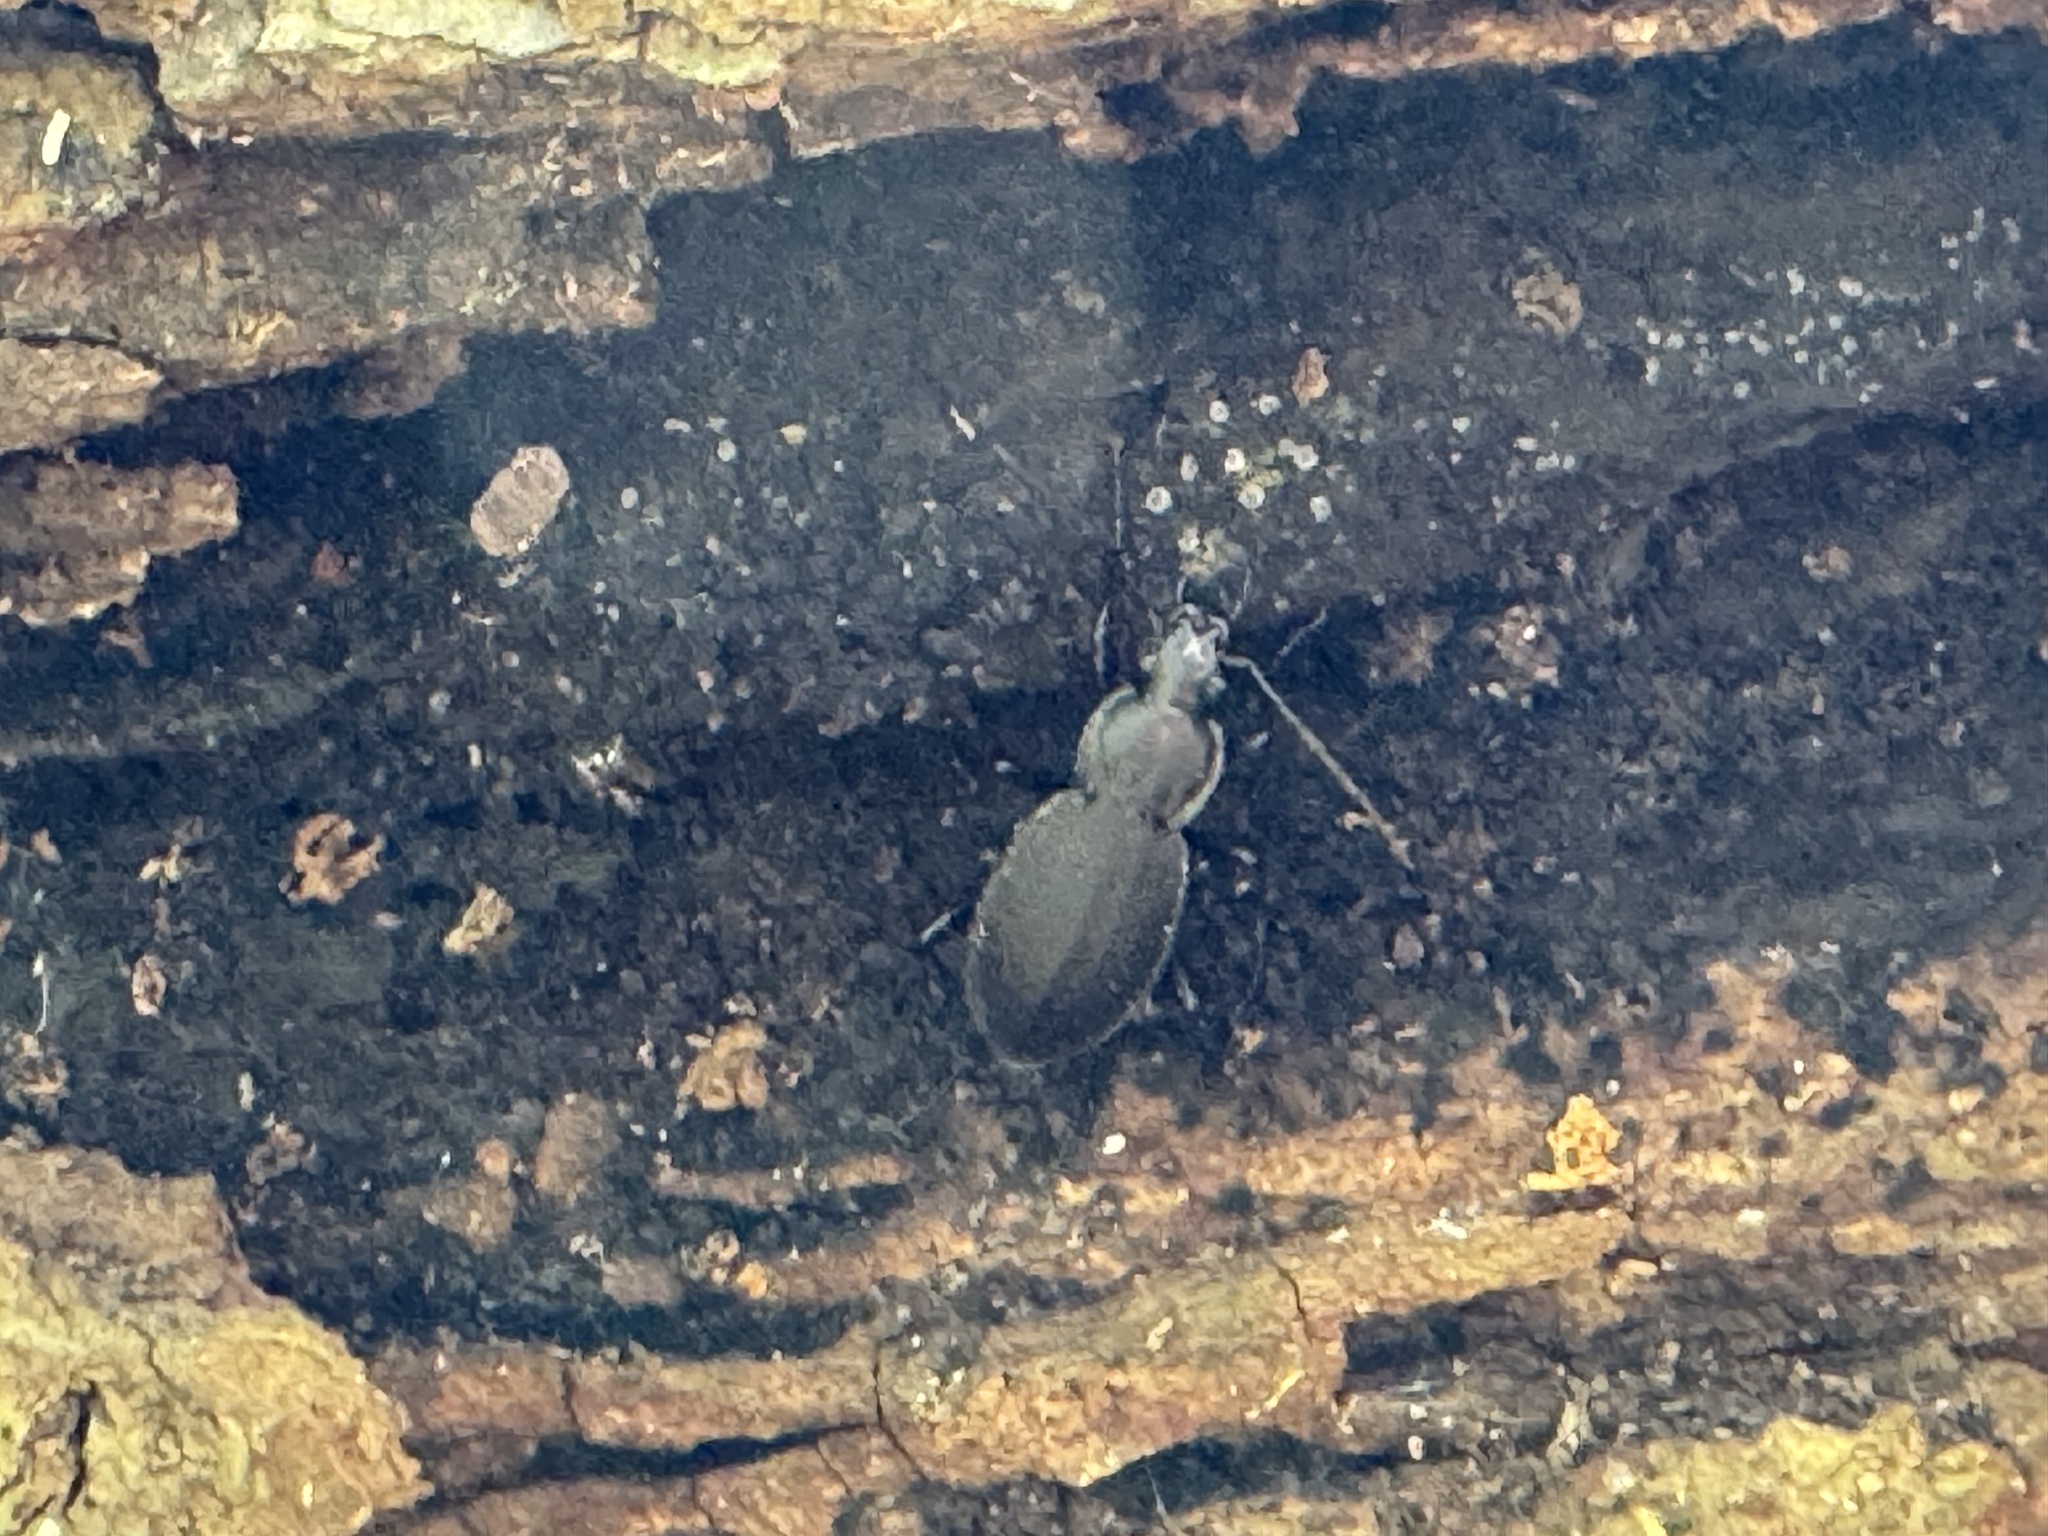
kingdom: Animalia
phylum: Arthropoda
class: Insecta
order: Coleoptera
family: Carabidae
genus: Carabus
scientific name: Carabus vinctus
